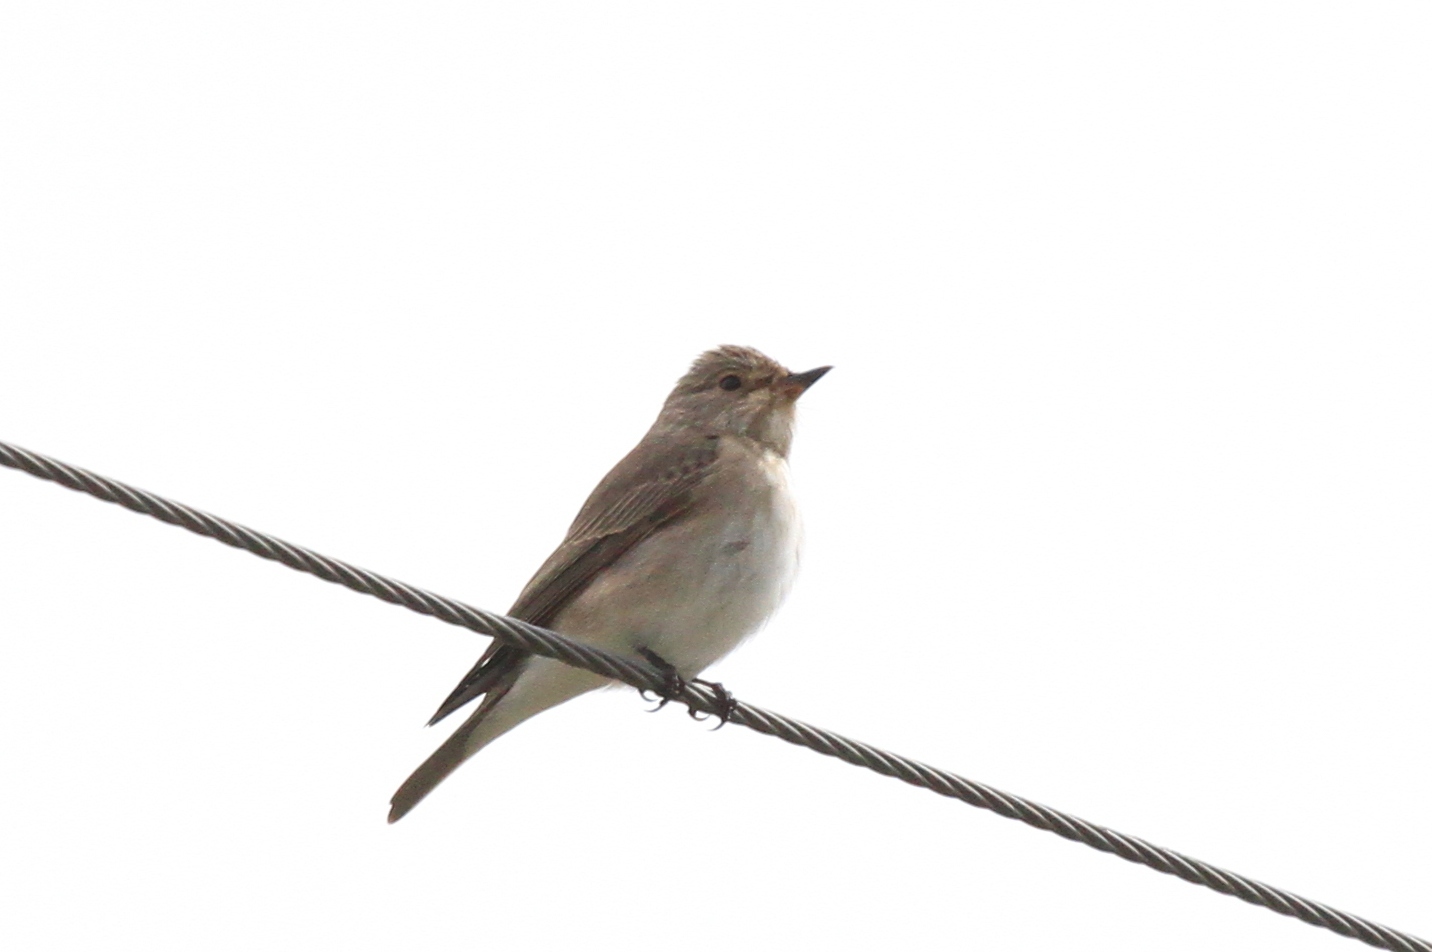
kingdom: Animalia
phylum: Chordata
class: Aves
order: Passeriformes
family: Muscicapidae
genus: Muscicapa
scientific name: Muscicapa striata
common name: Spotted flycatcher
